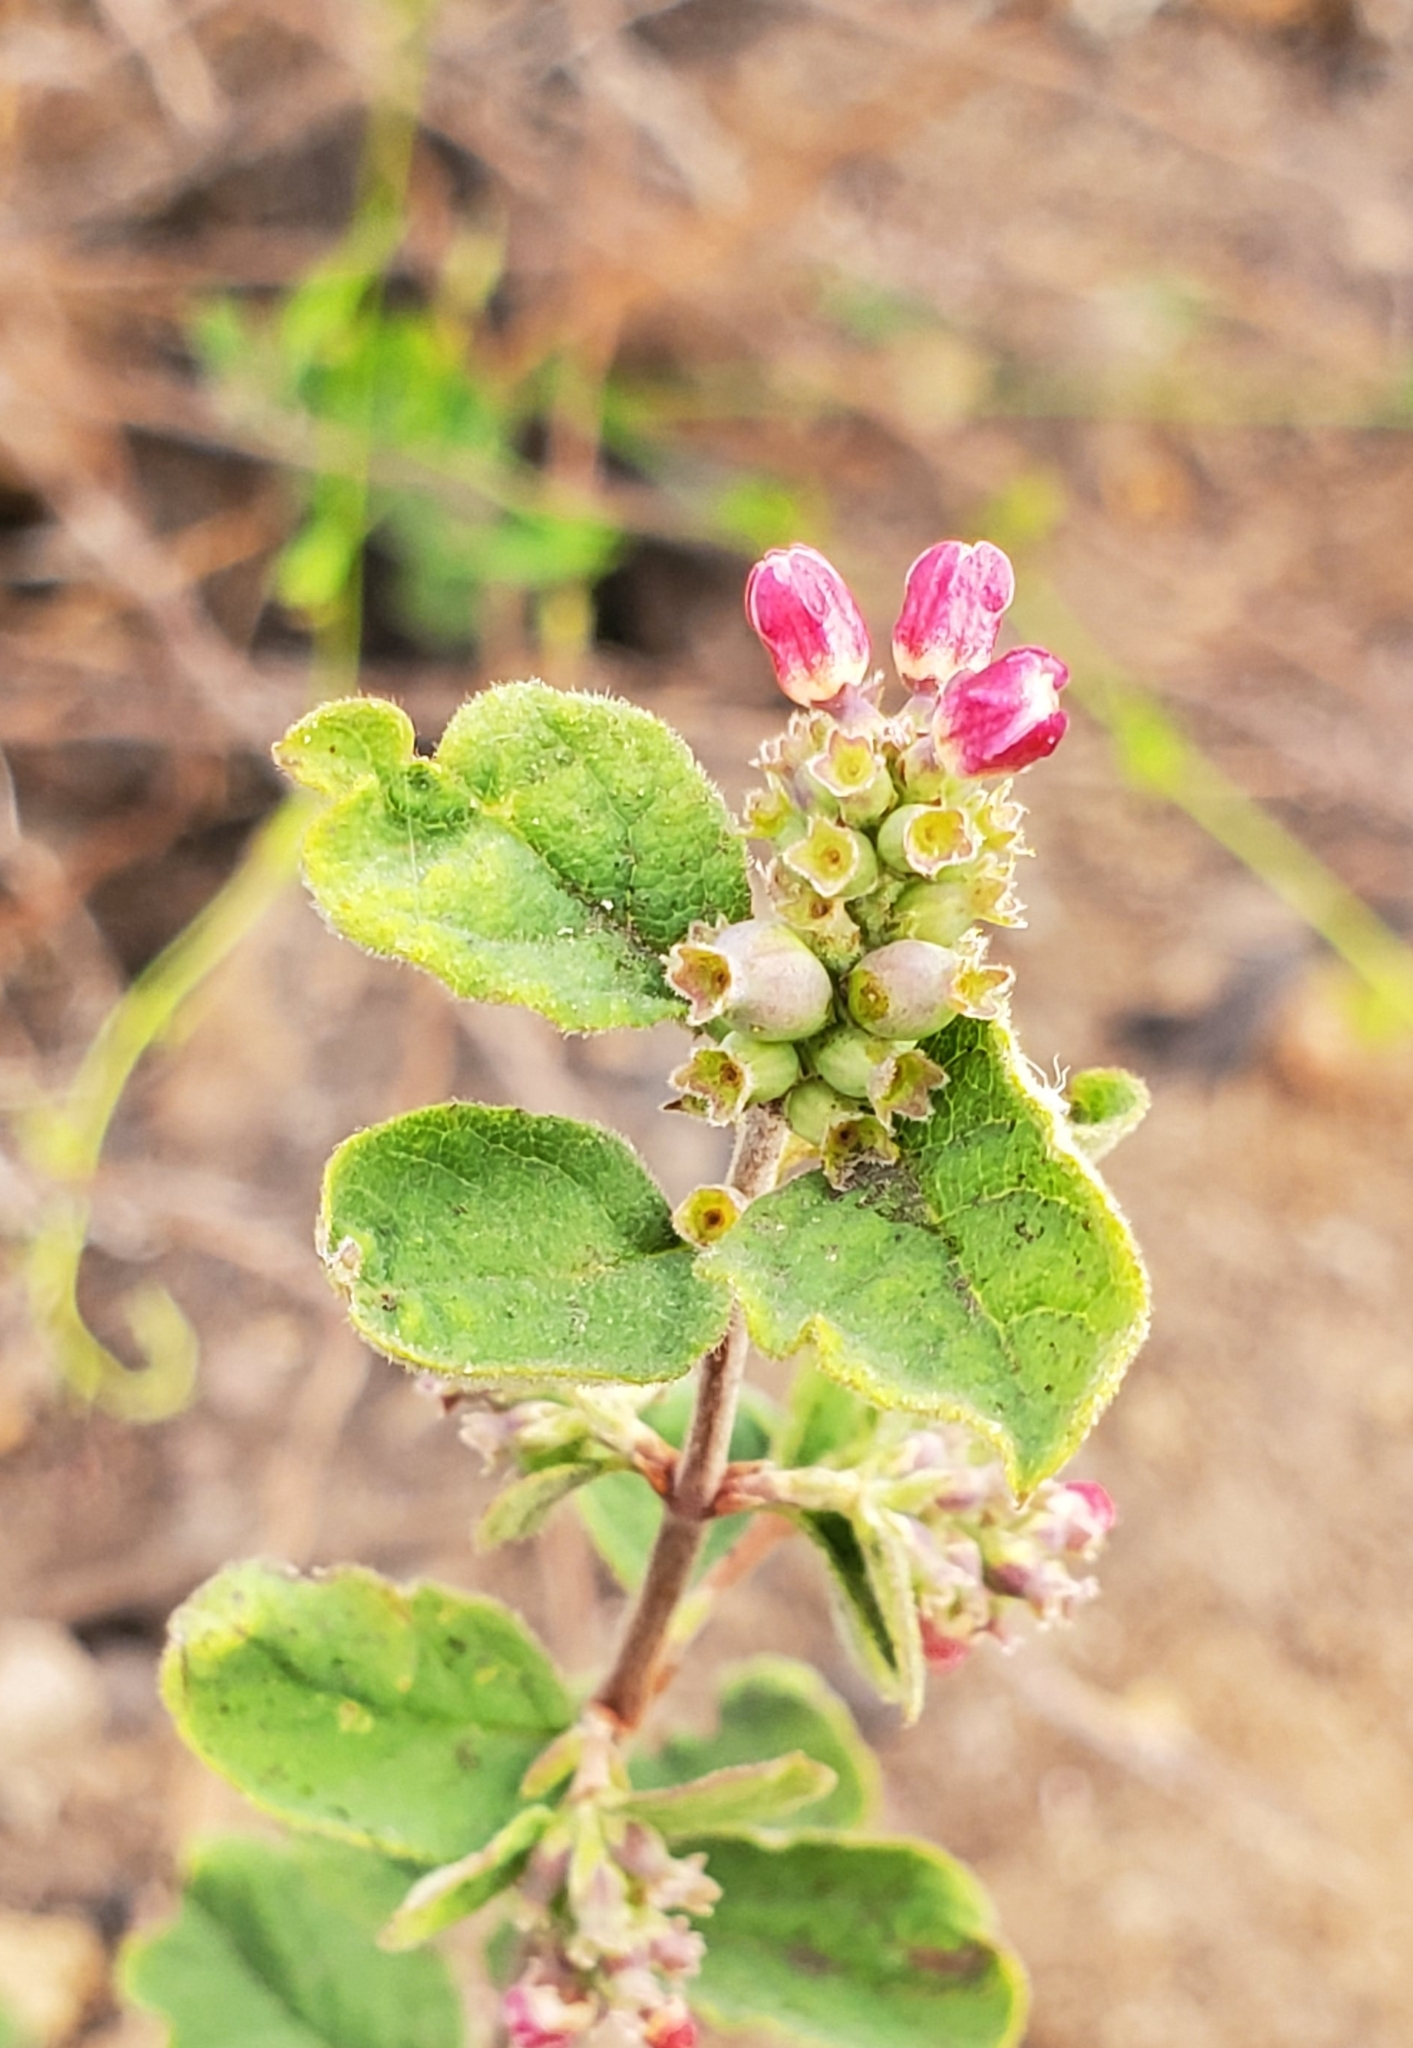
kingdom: Plantae
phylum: Tracheophyta
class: Magnoliopsida
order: Dipsacales
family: Caprifoliaceae
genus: Symphoricarpos
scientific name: Symphoricarpos albus
